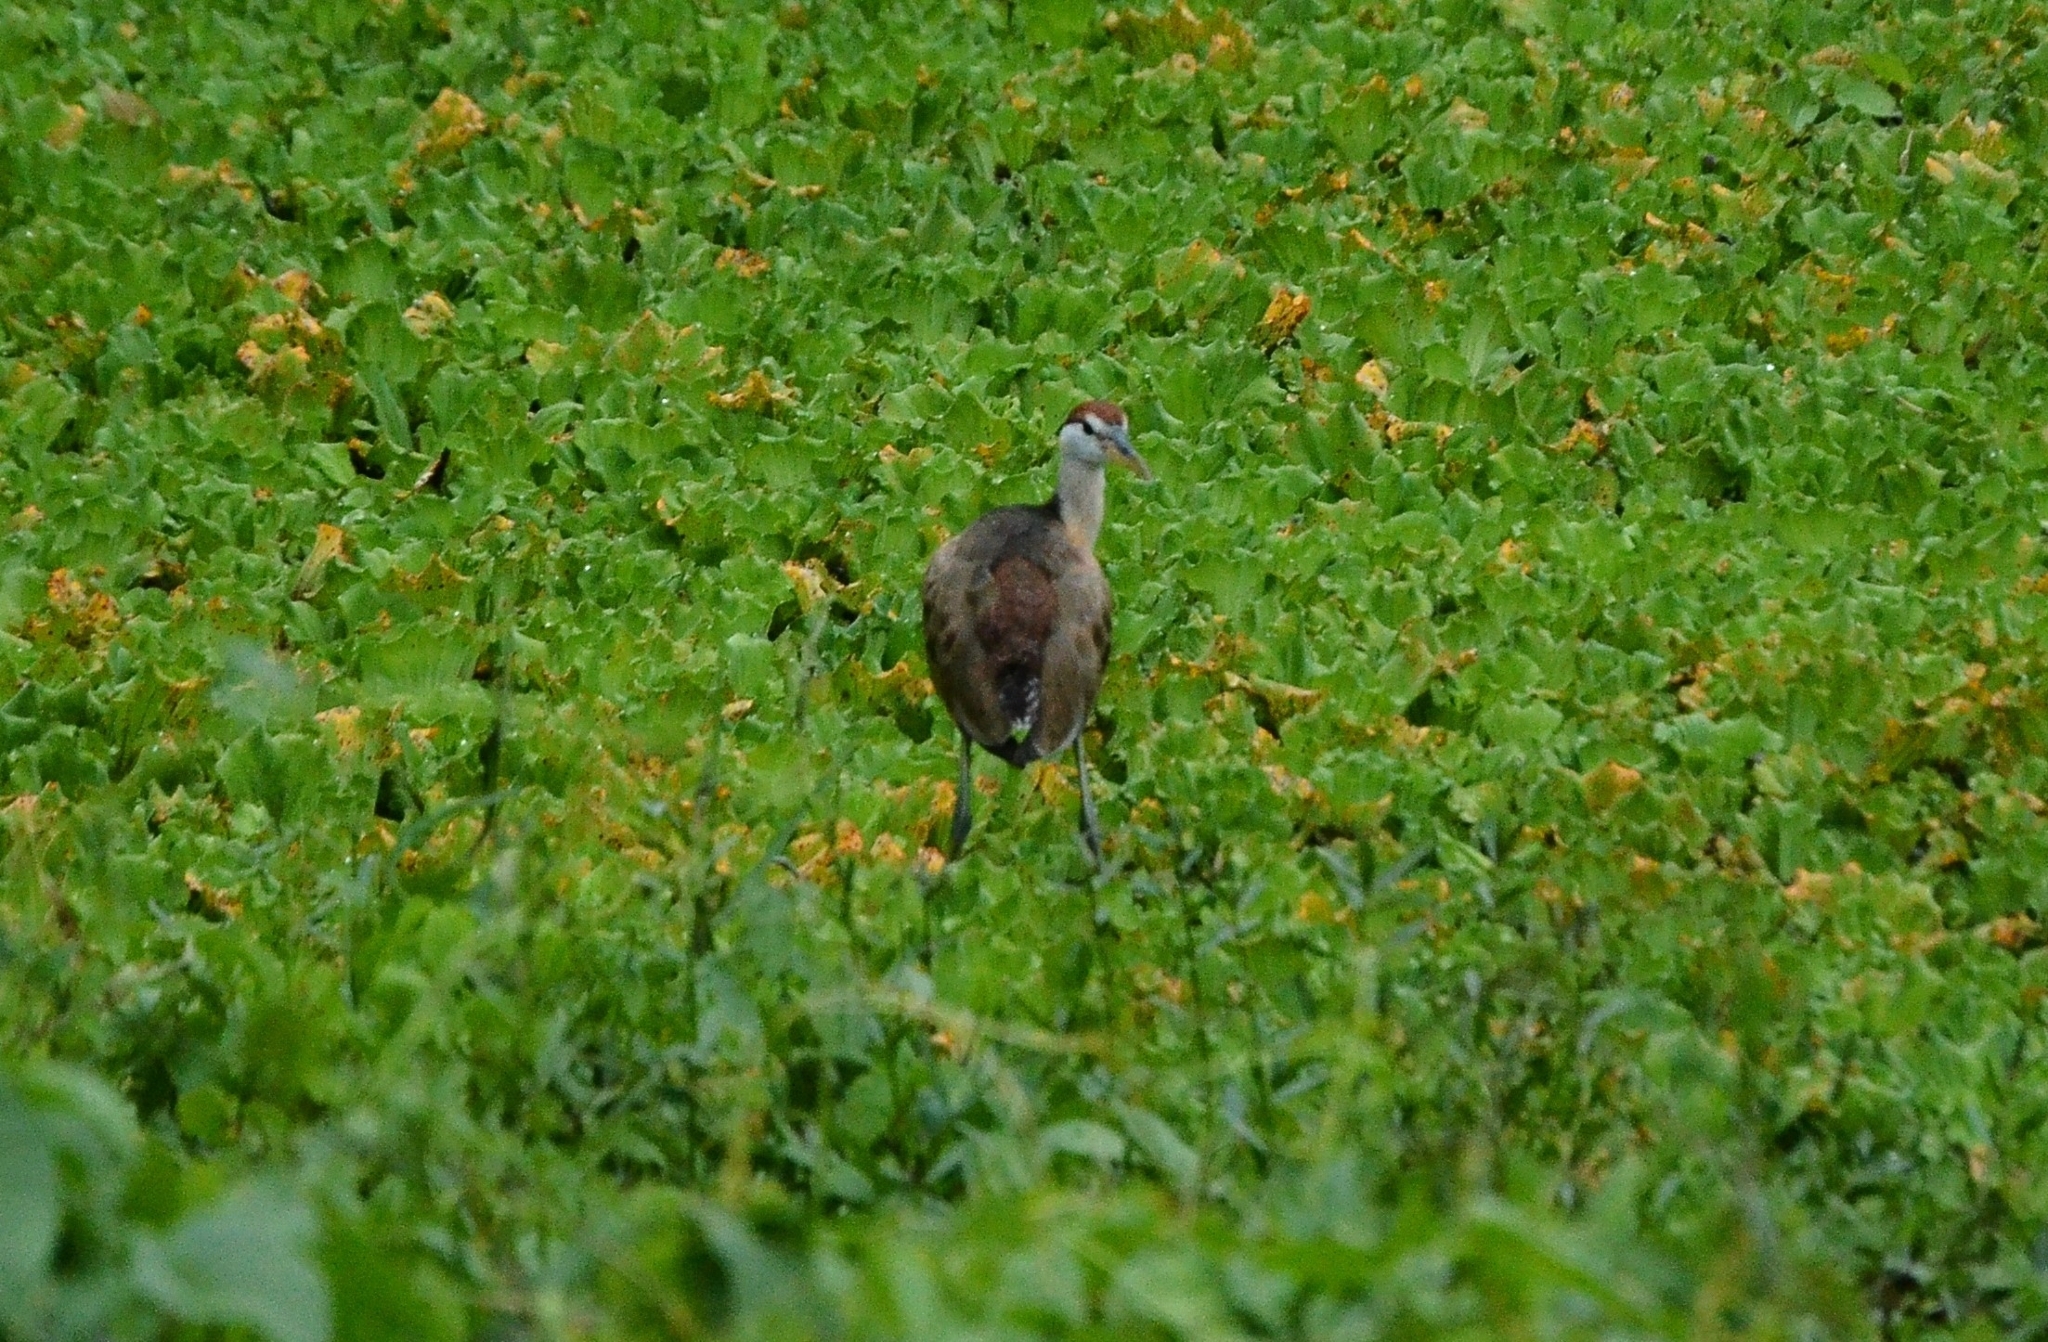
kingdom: Animalia
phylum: Chordata
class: Aves
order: Charadriiformes
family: Jacanidae
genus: Metopidius
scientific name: Metopidius indicus
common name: Bronze-winged jacana
